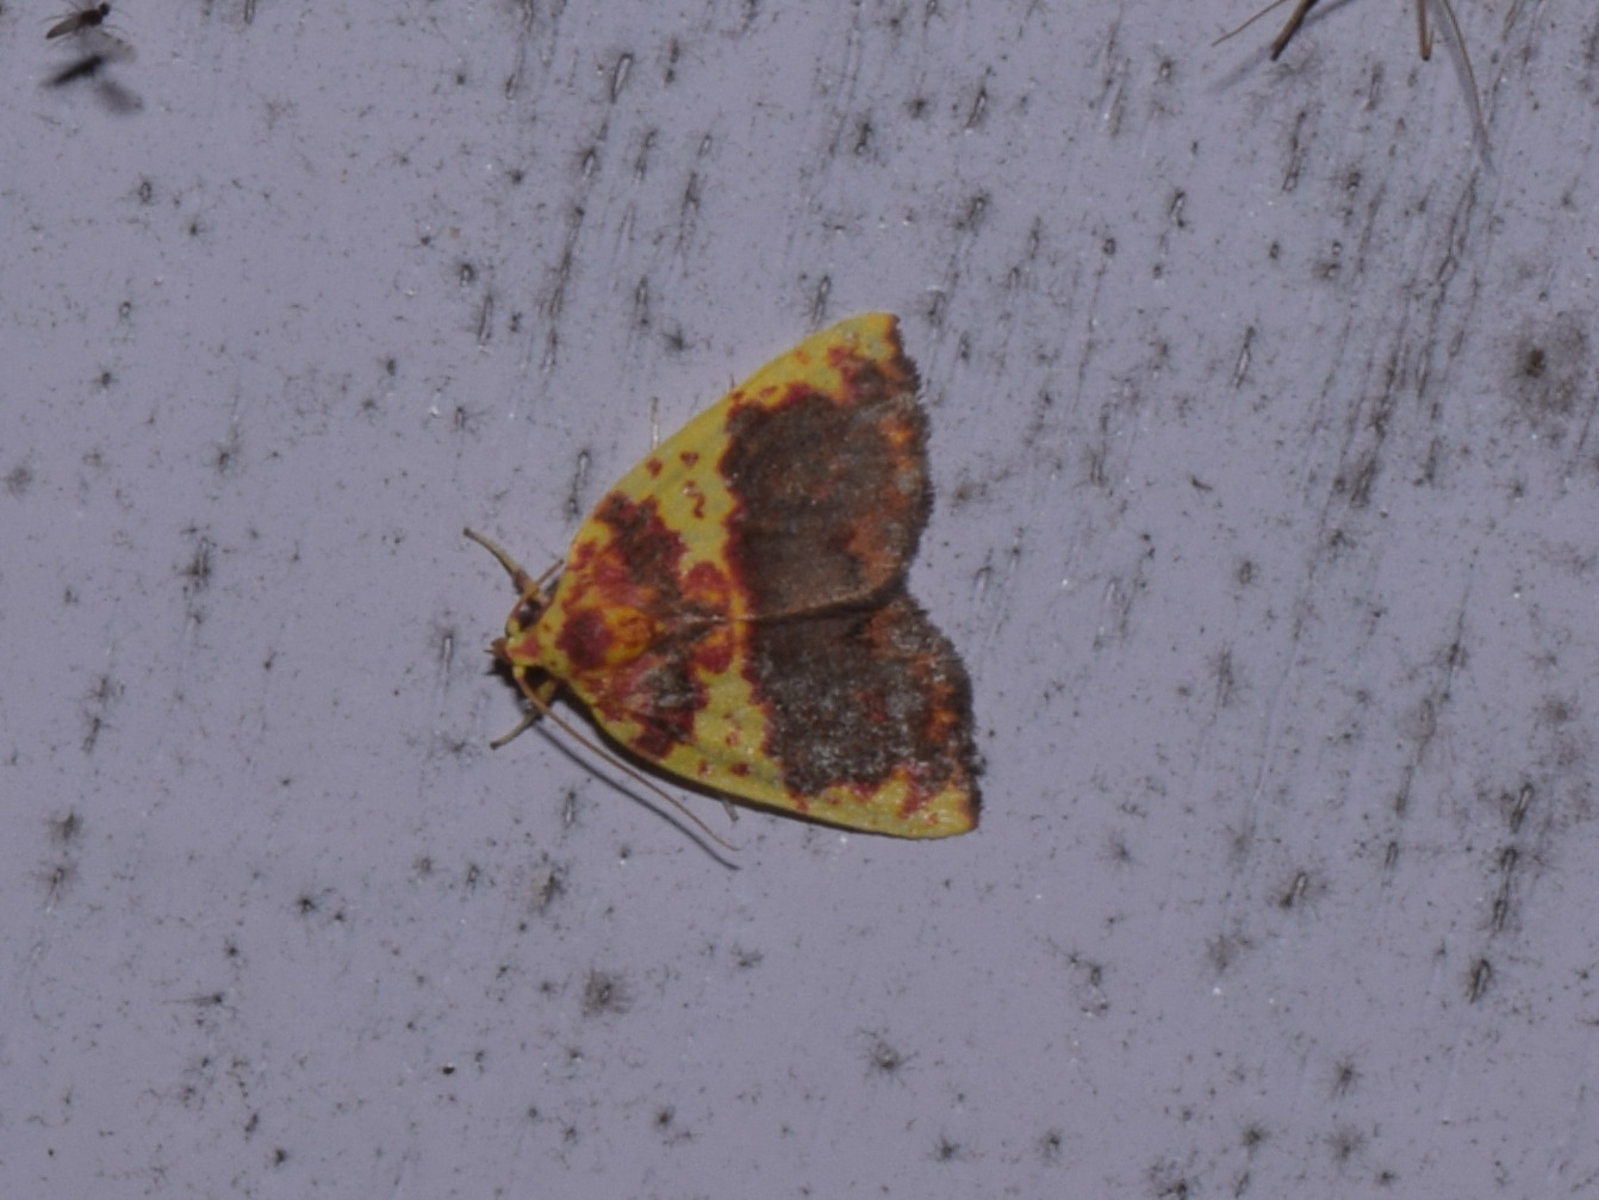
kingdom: Animalia
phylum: Arthropoda
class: Insecta
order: Lepidoptera
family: Nolidae
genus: Siglophora
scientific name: Siglophora sanguinolenta
